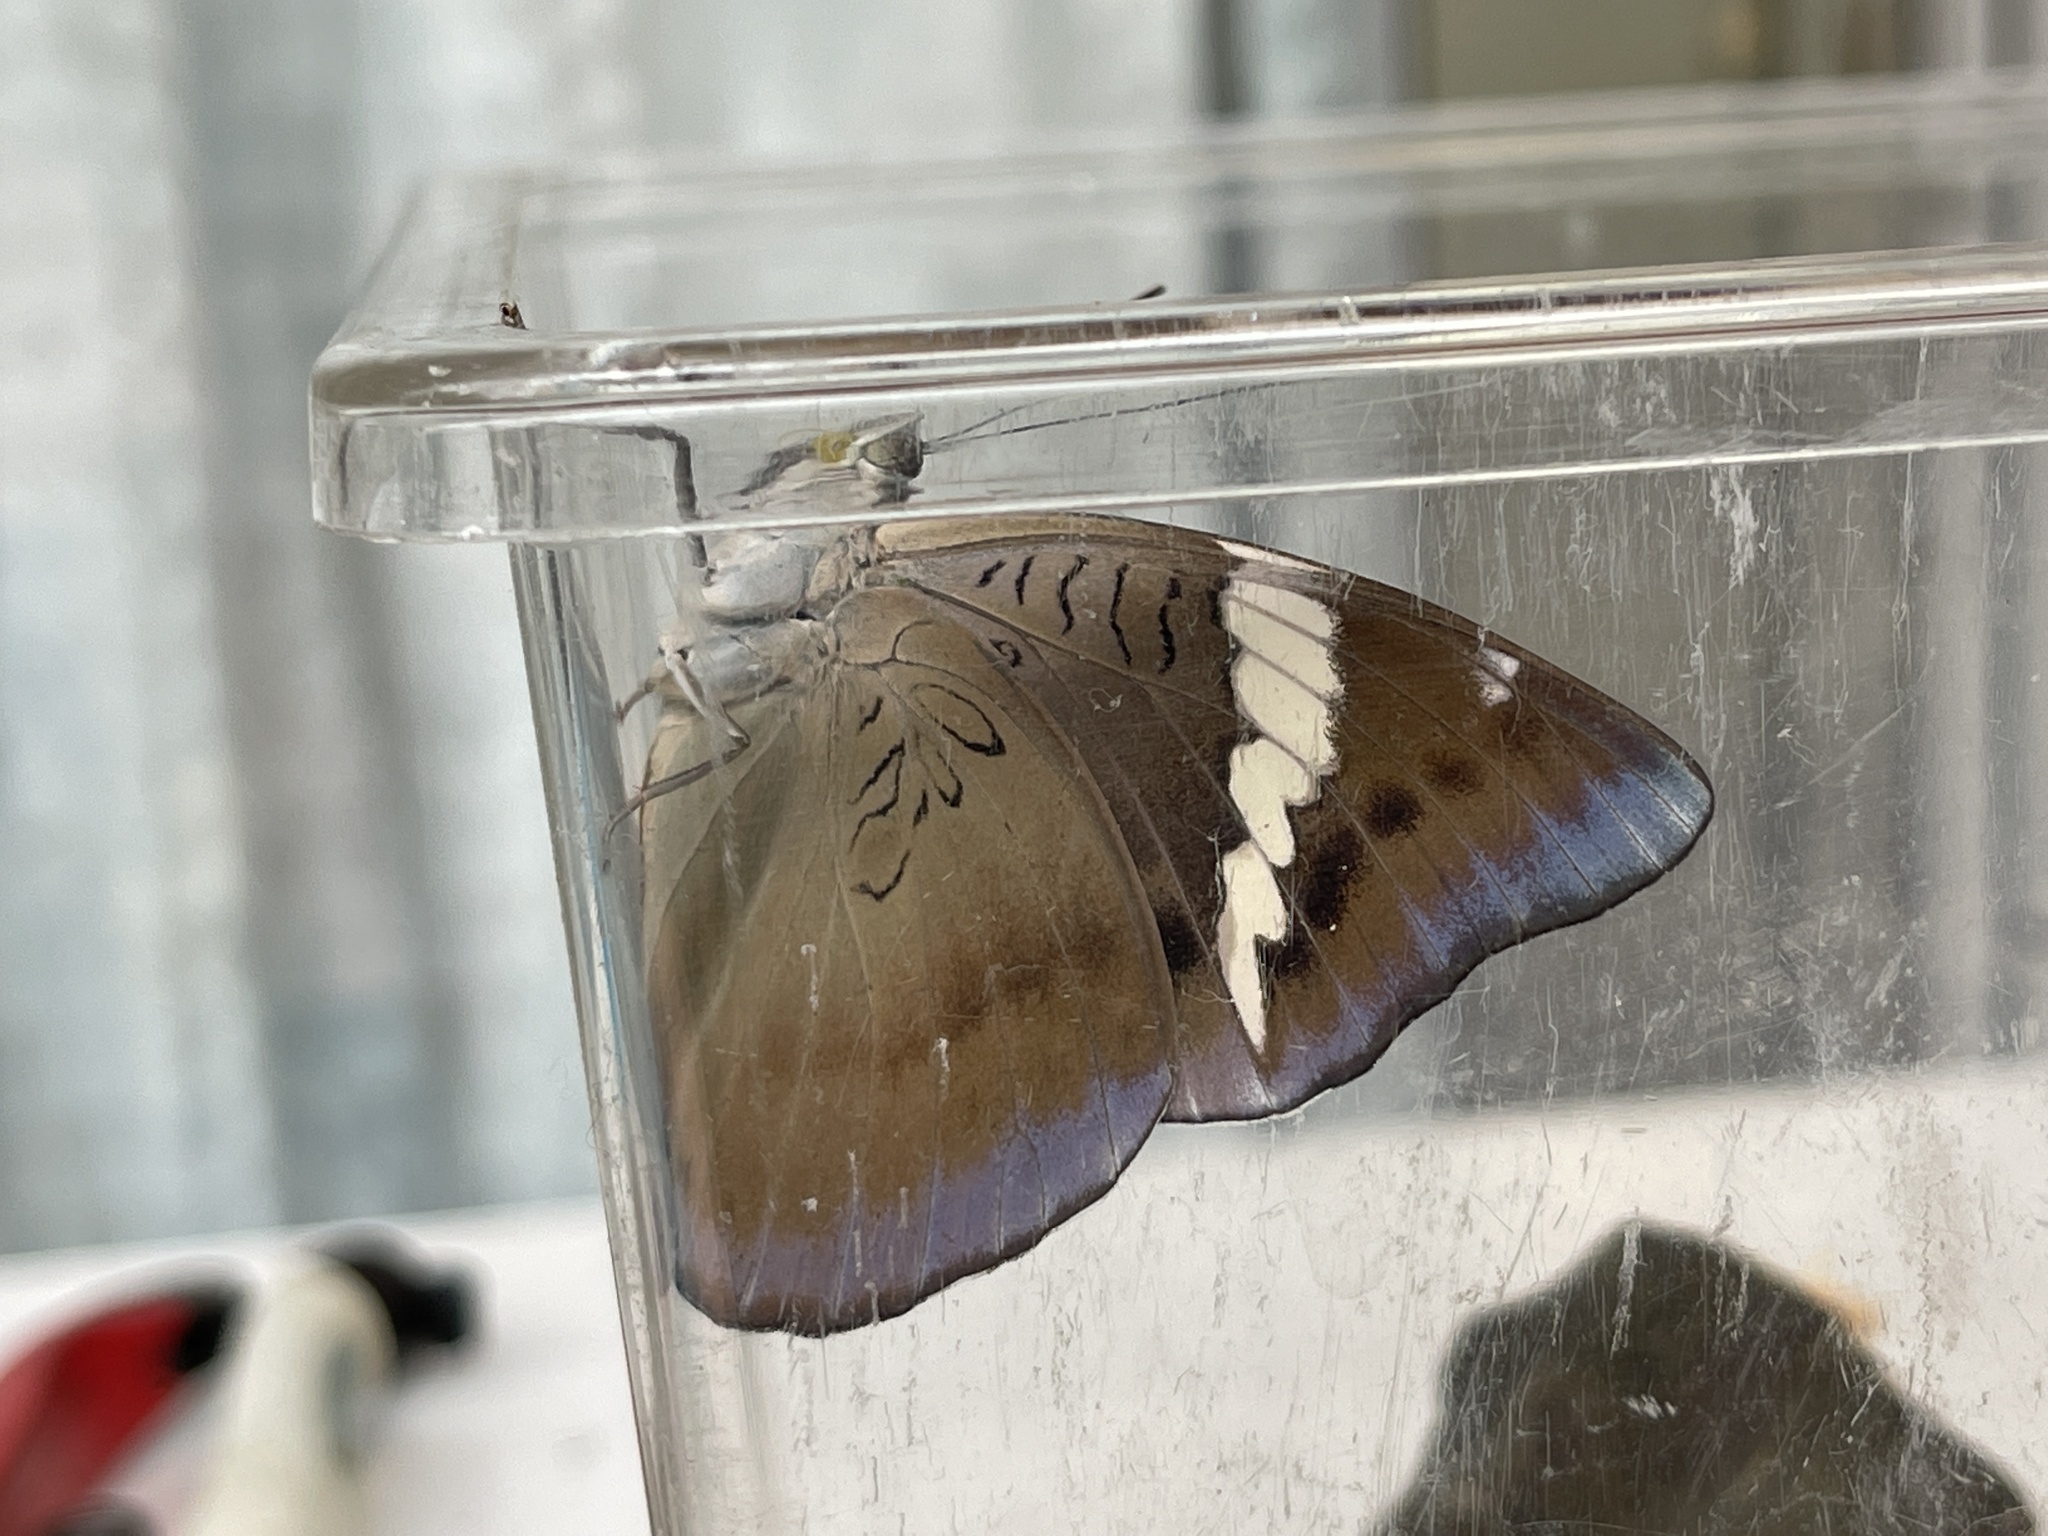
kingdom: Animalia
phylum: Arthropoda
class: Insecta
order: Lepidoptera
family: Nymphalidae
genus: Euthalia
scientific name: Euthalia phemius
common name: White-edged blue baron
